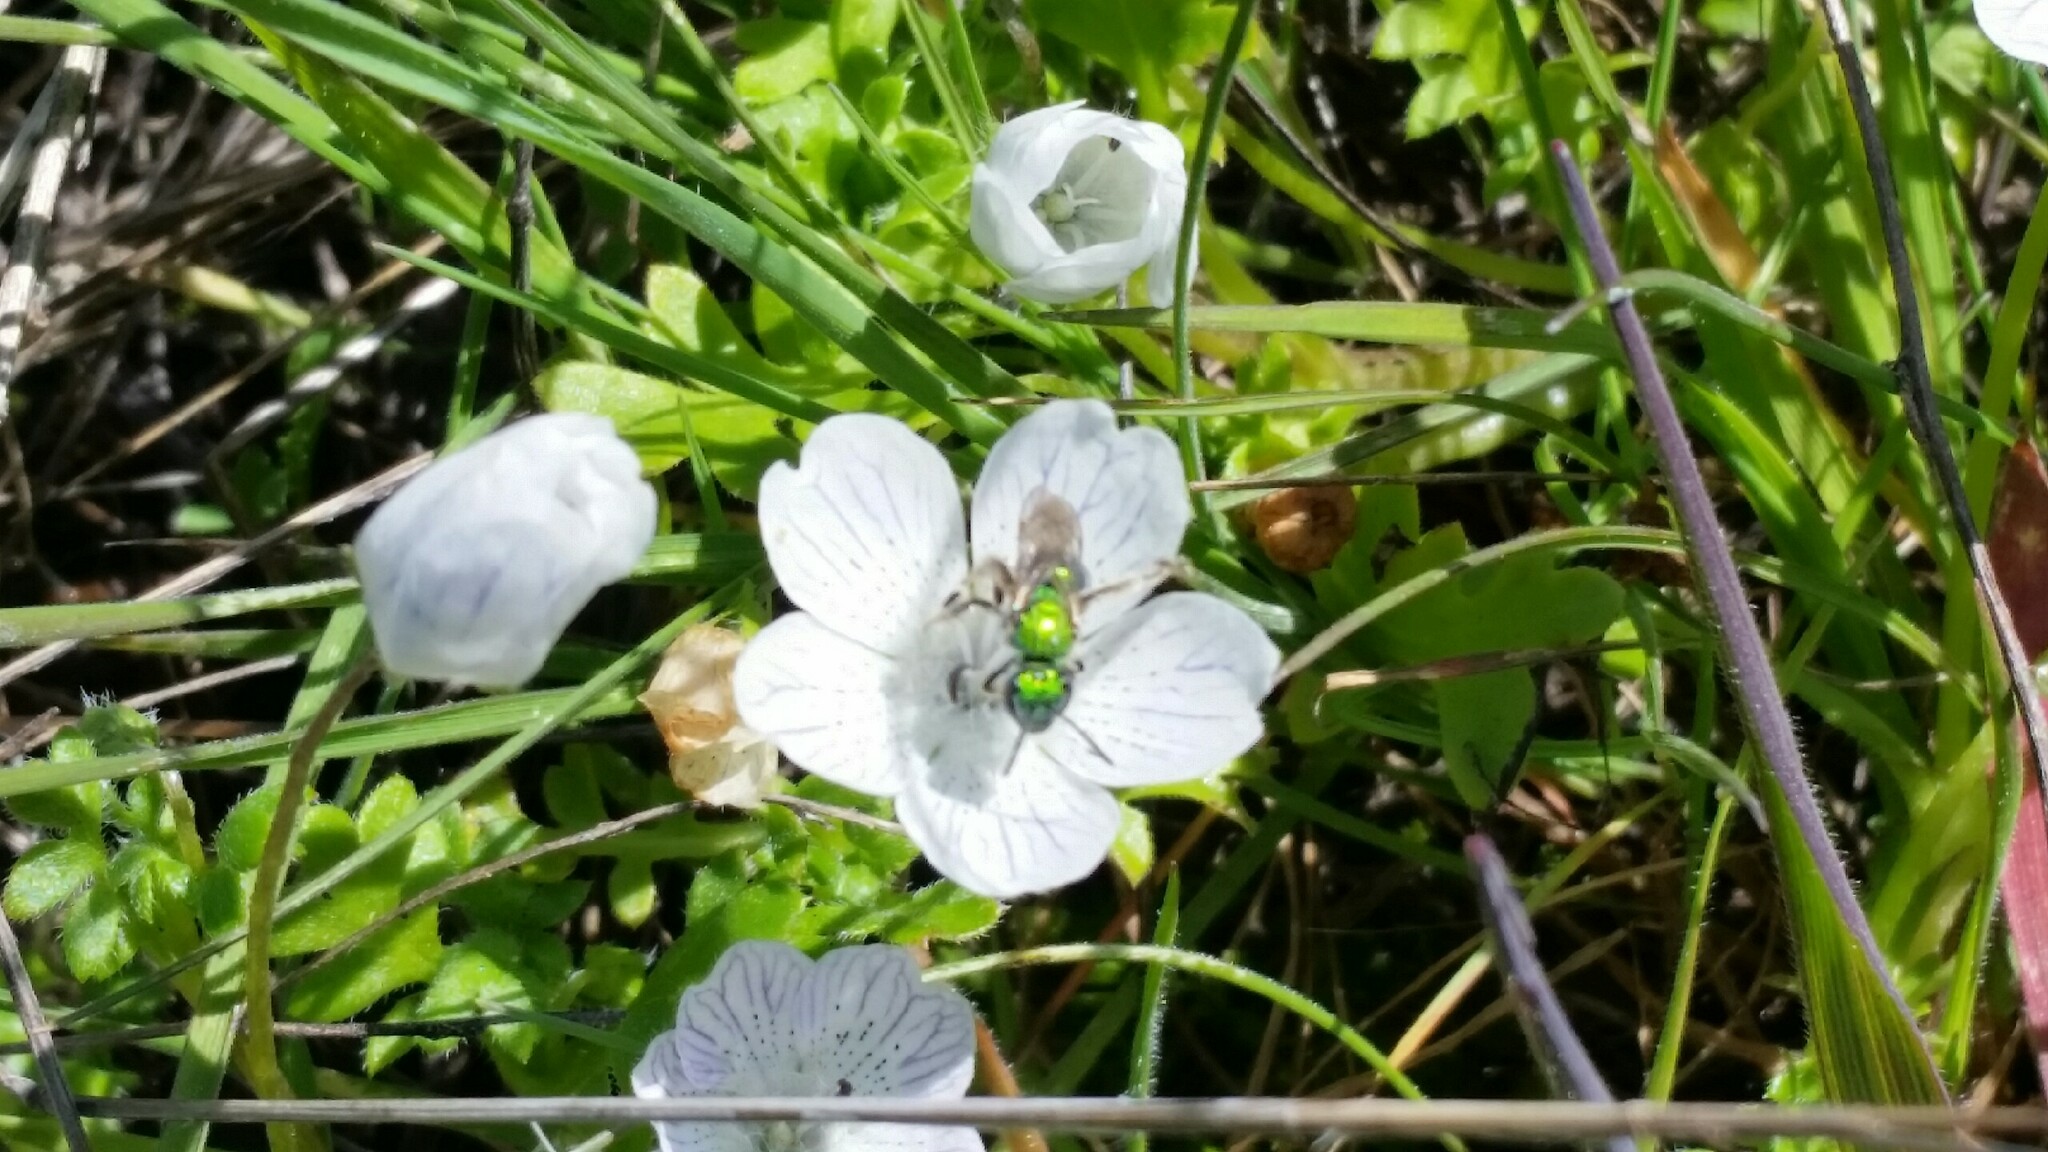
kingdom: Animalia
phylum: Arthropoda
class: Insecta
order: Hymenoptera
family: Halictidae
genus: Augochlorella
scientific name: Augochlorella pomoniella
